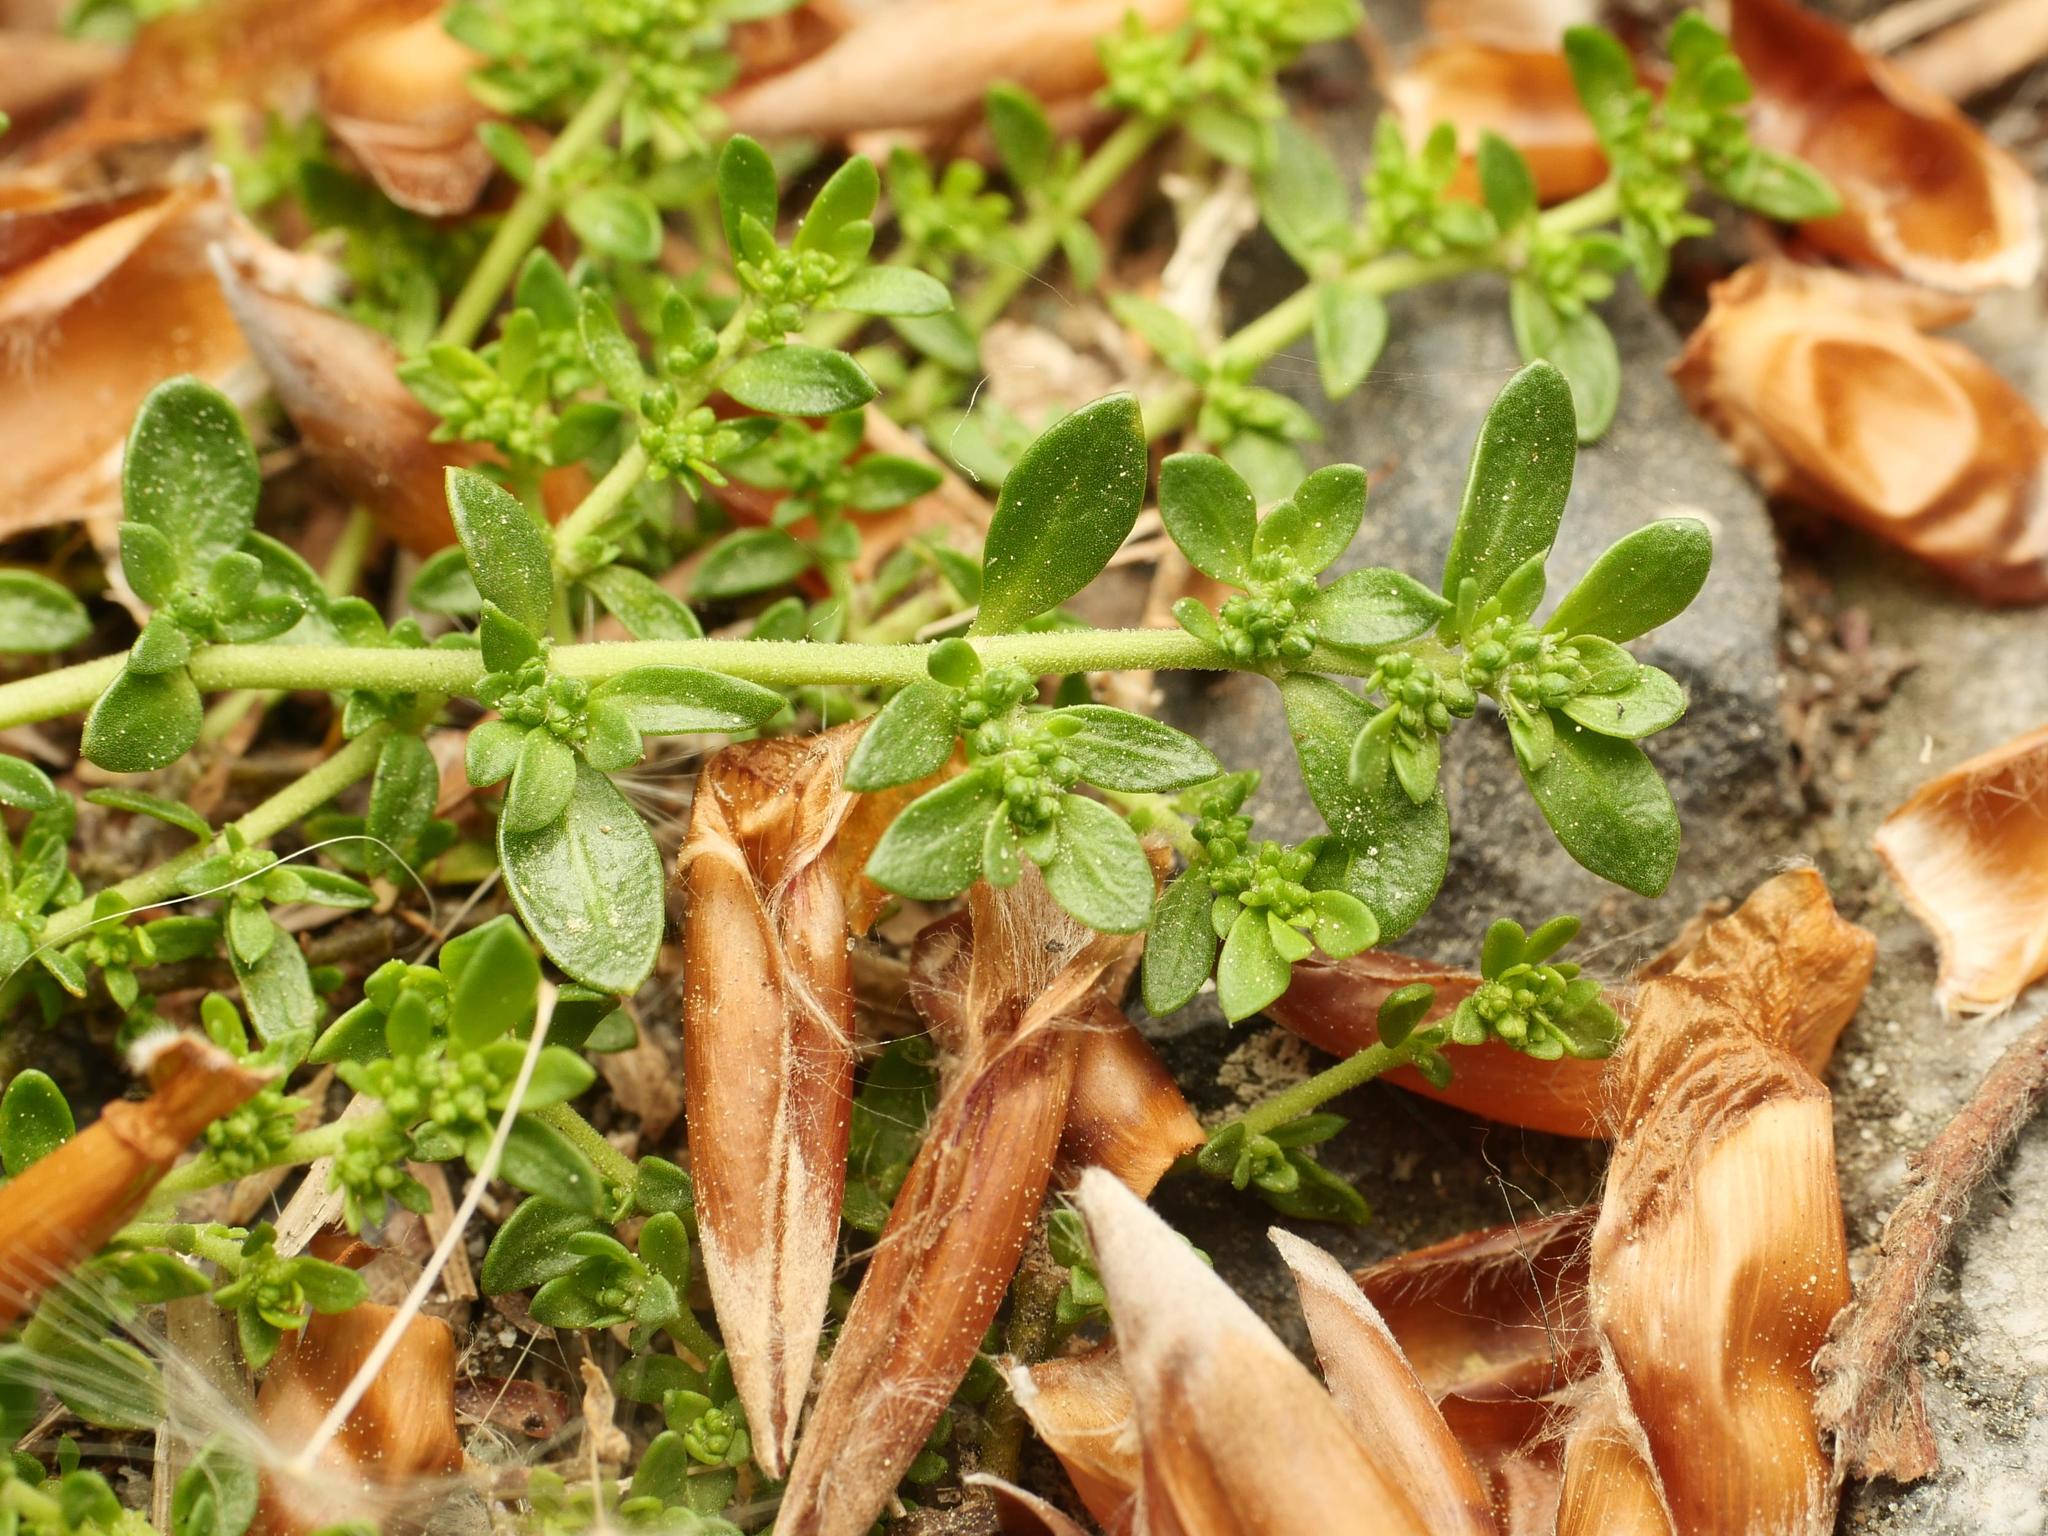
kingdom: Plantae
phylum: Tracheophyta
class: Magnoliopsida
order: Caryophyllales
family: Caryophyllaceae
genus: Herniaria
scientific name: Herniaria glabra
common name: Smooth rupturewort
